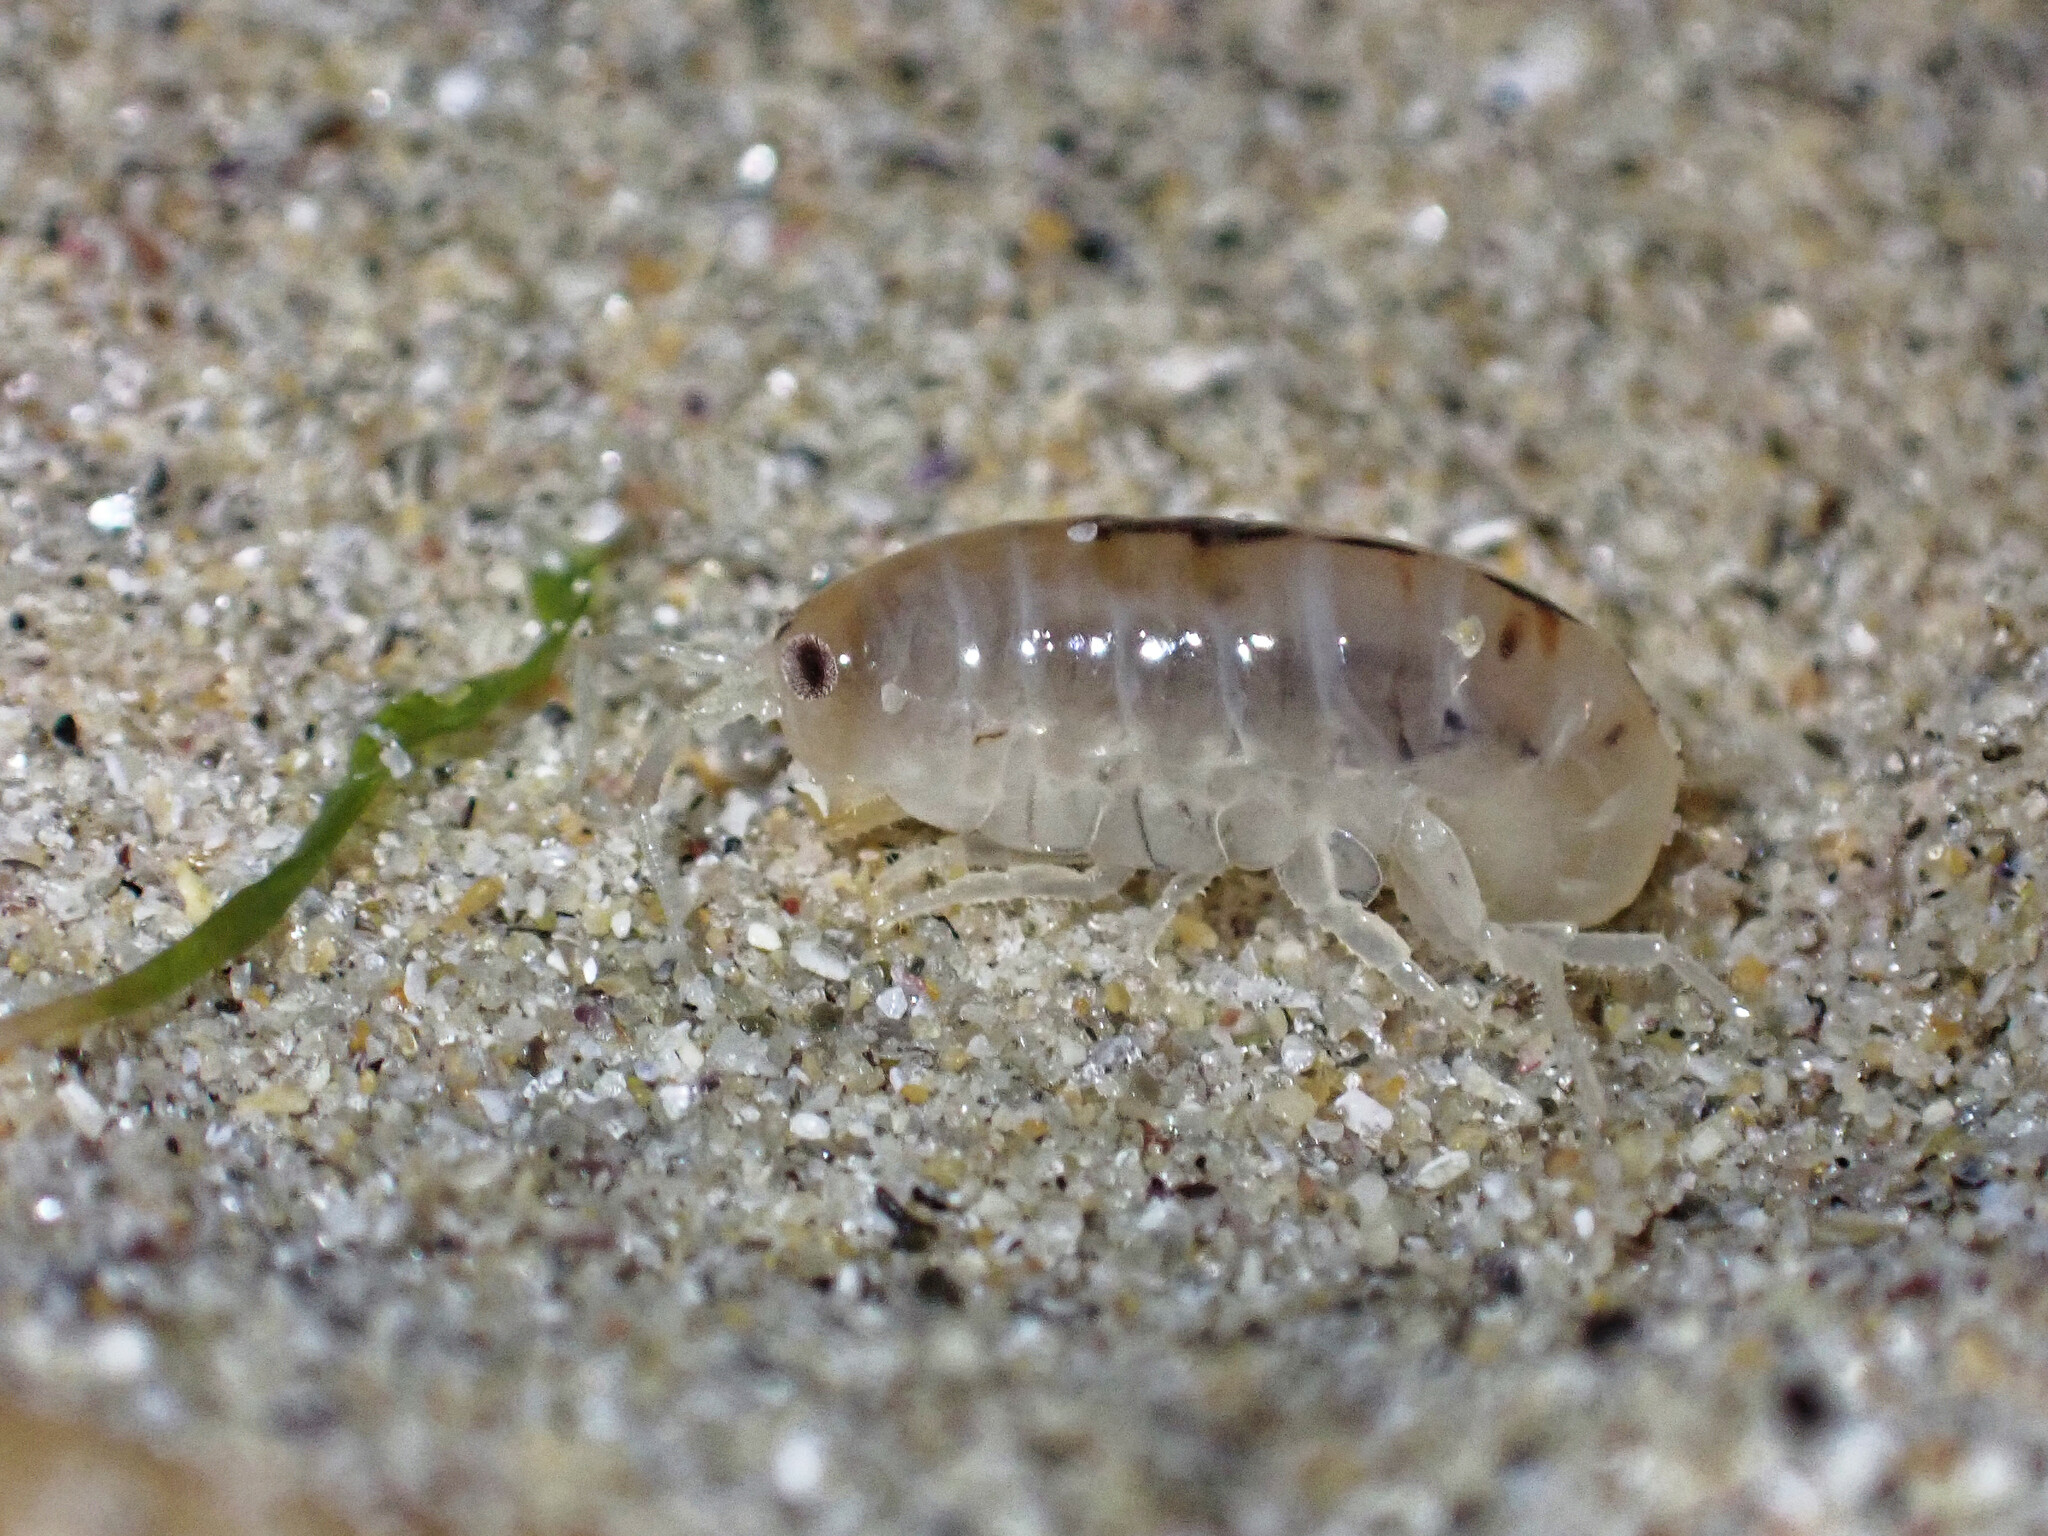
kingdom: Animalia
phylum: Arthropoda
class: Malacostraca
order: Amphipoda
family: Talitridae
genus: Talitrus
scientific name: Talitrus saltator
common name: Sand hopper
